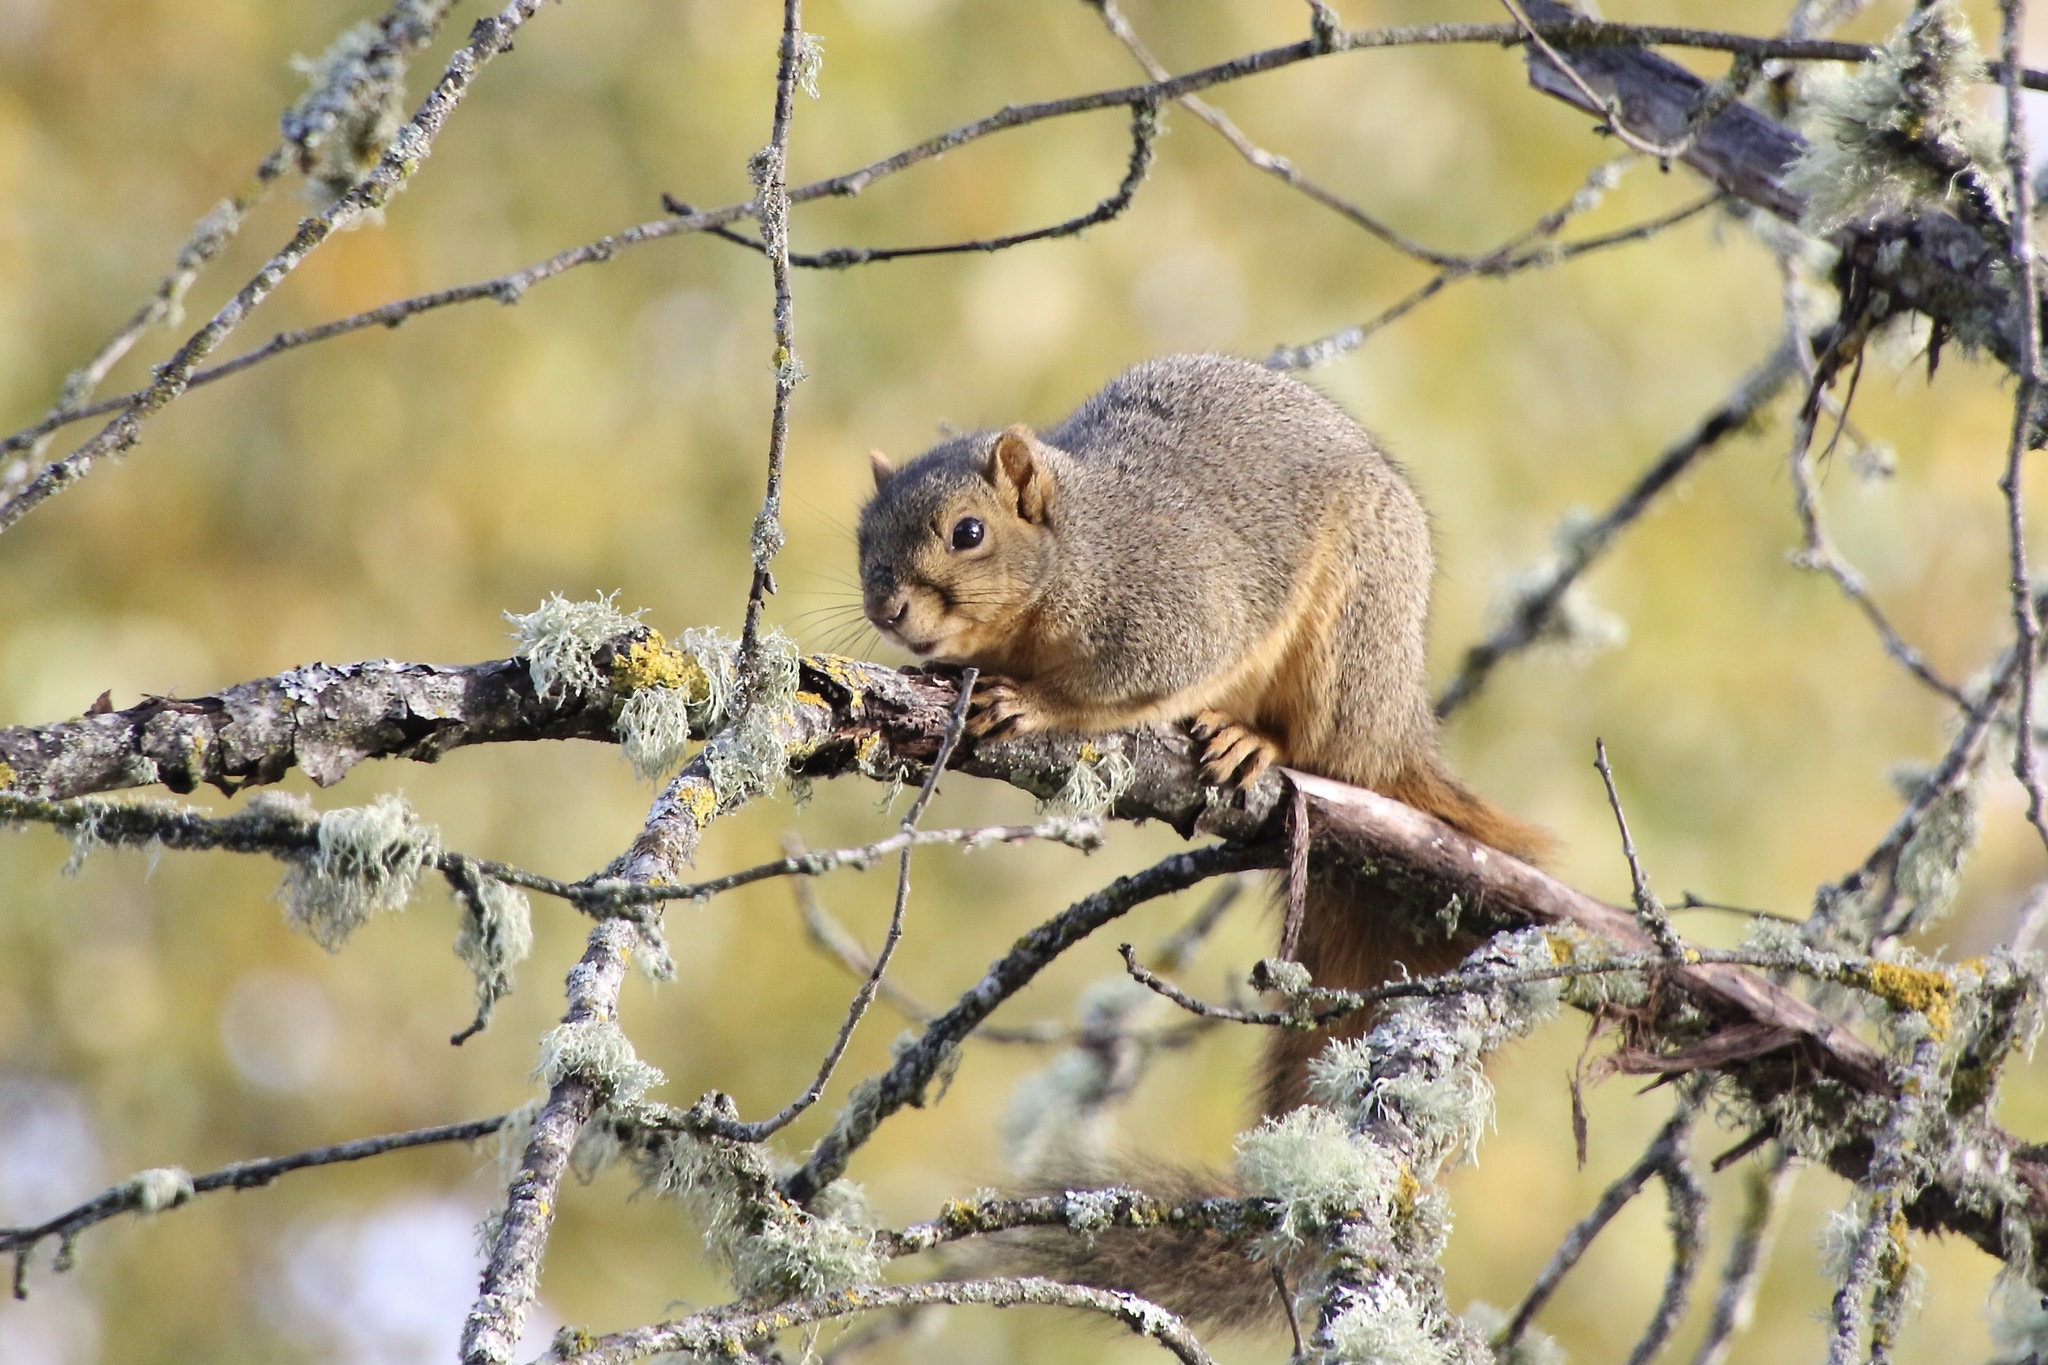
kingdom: Animalia
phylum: Chordata
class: Mammalia
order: Rodentia
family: Sciuridae
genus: Sciurus
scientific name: Sciurus niger
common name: Fox squirrel
